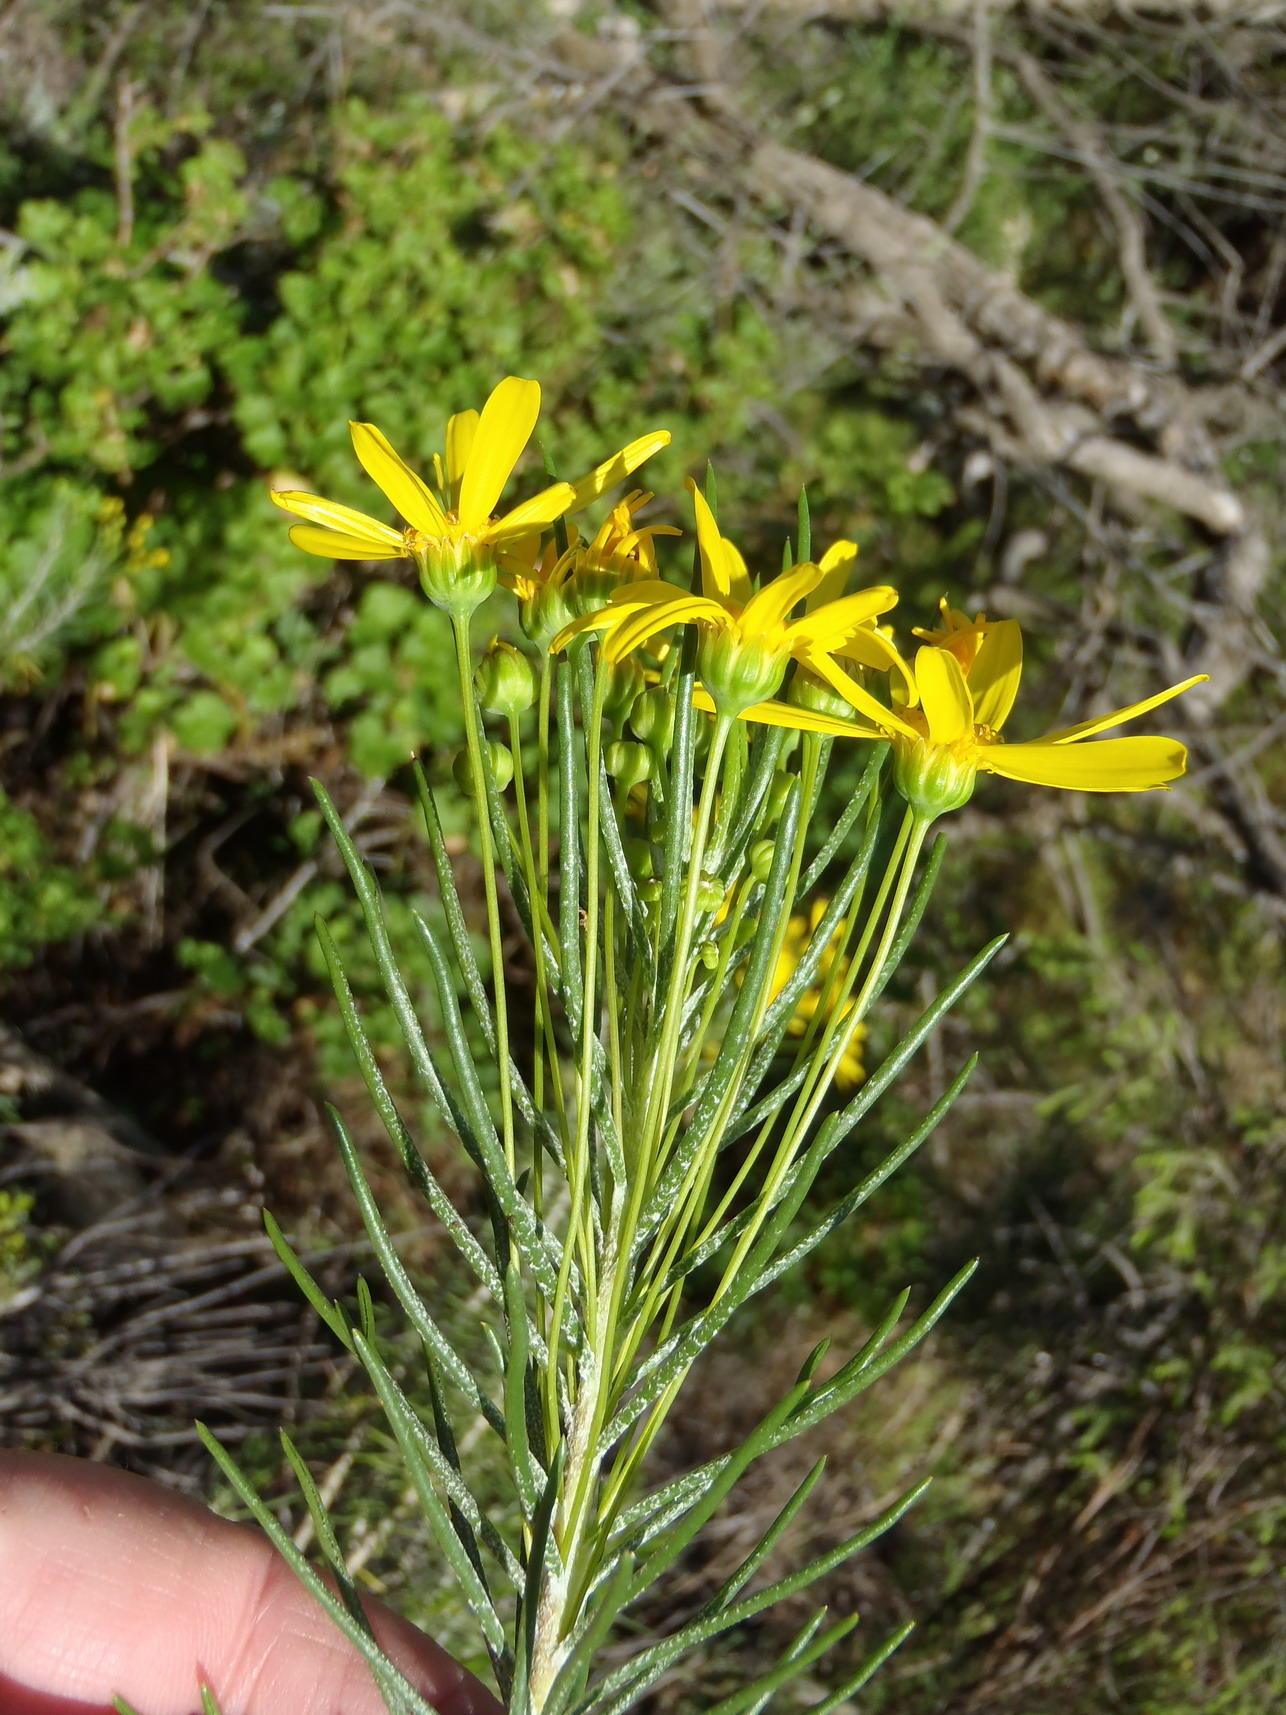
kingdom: Plantae
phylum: Tracheophyta
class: Magnoliopsida
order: Asterales
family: Asteraceae
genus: Euryops
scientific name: Euryops rehmannii
